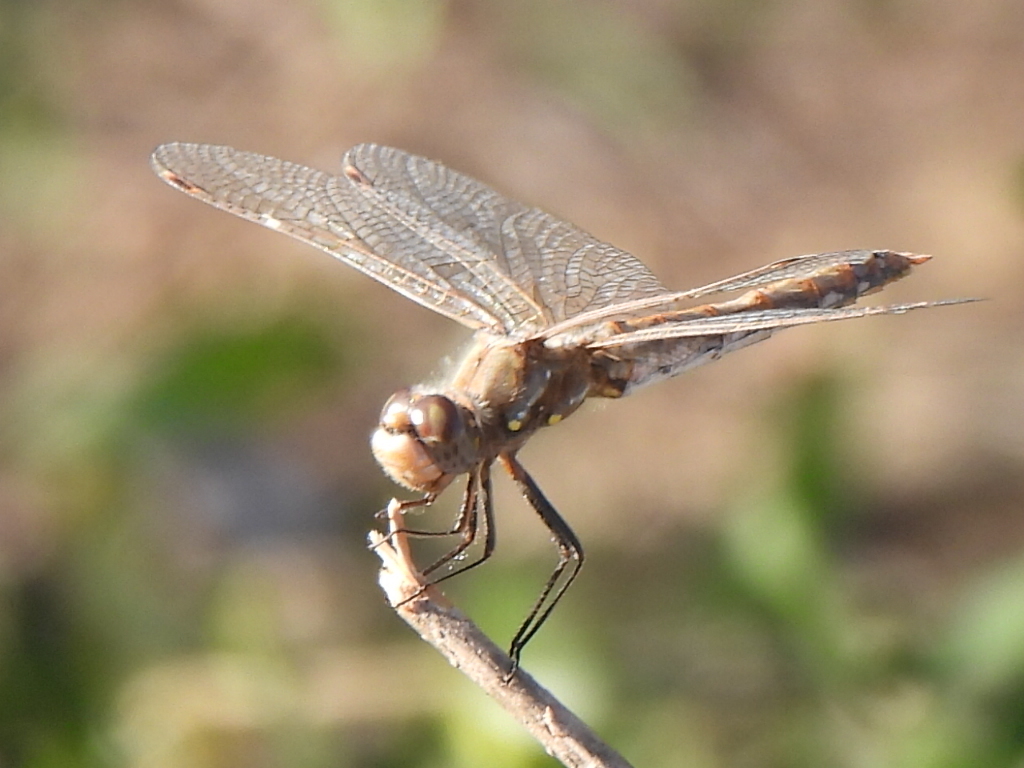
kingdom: Animalia
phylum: Arthropoda
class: Insecta
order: Odonata
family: Libellulidae
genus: Sympetrum
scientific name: Sympetrum corruptum
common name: Variegated meadowhawk
